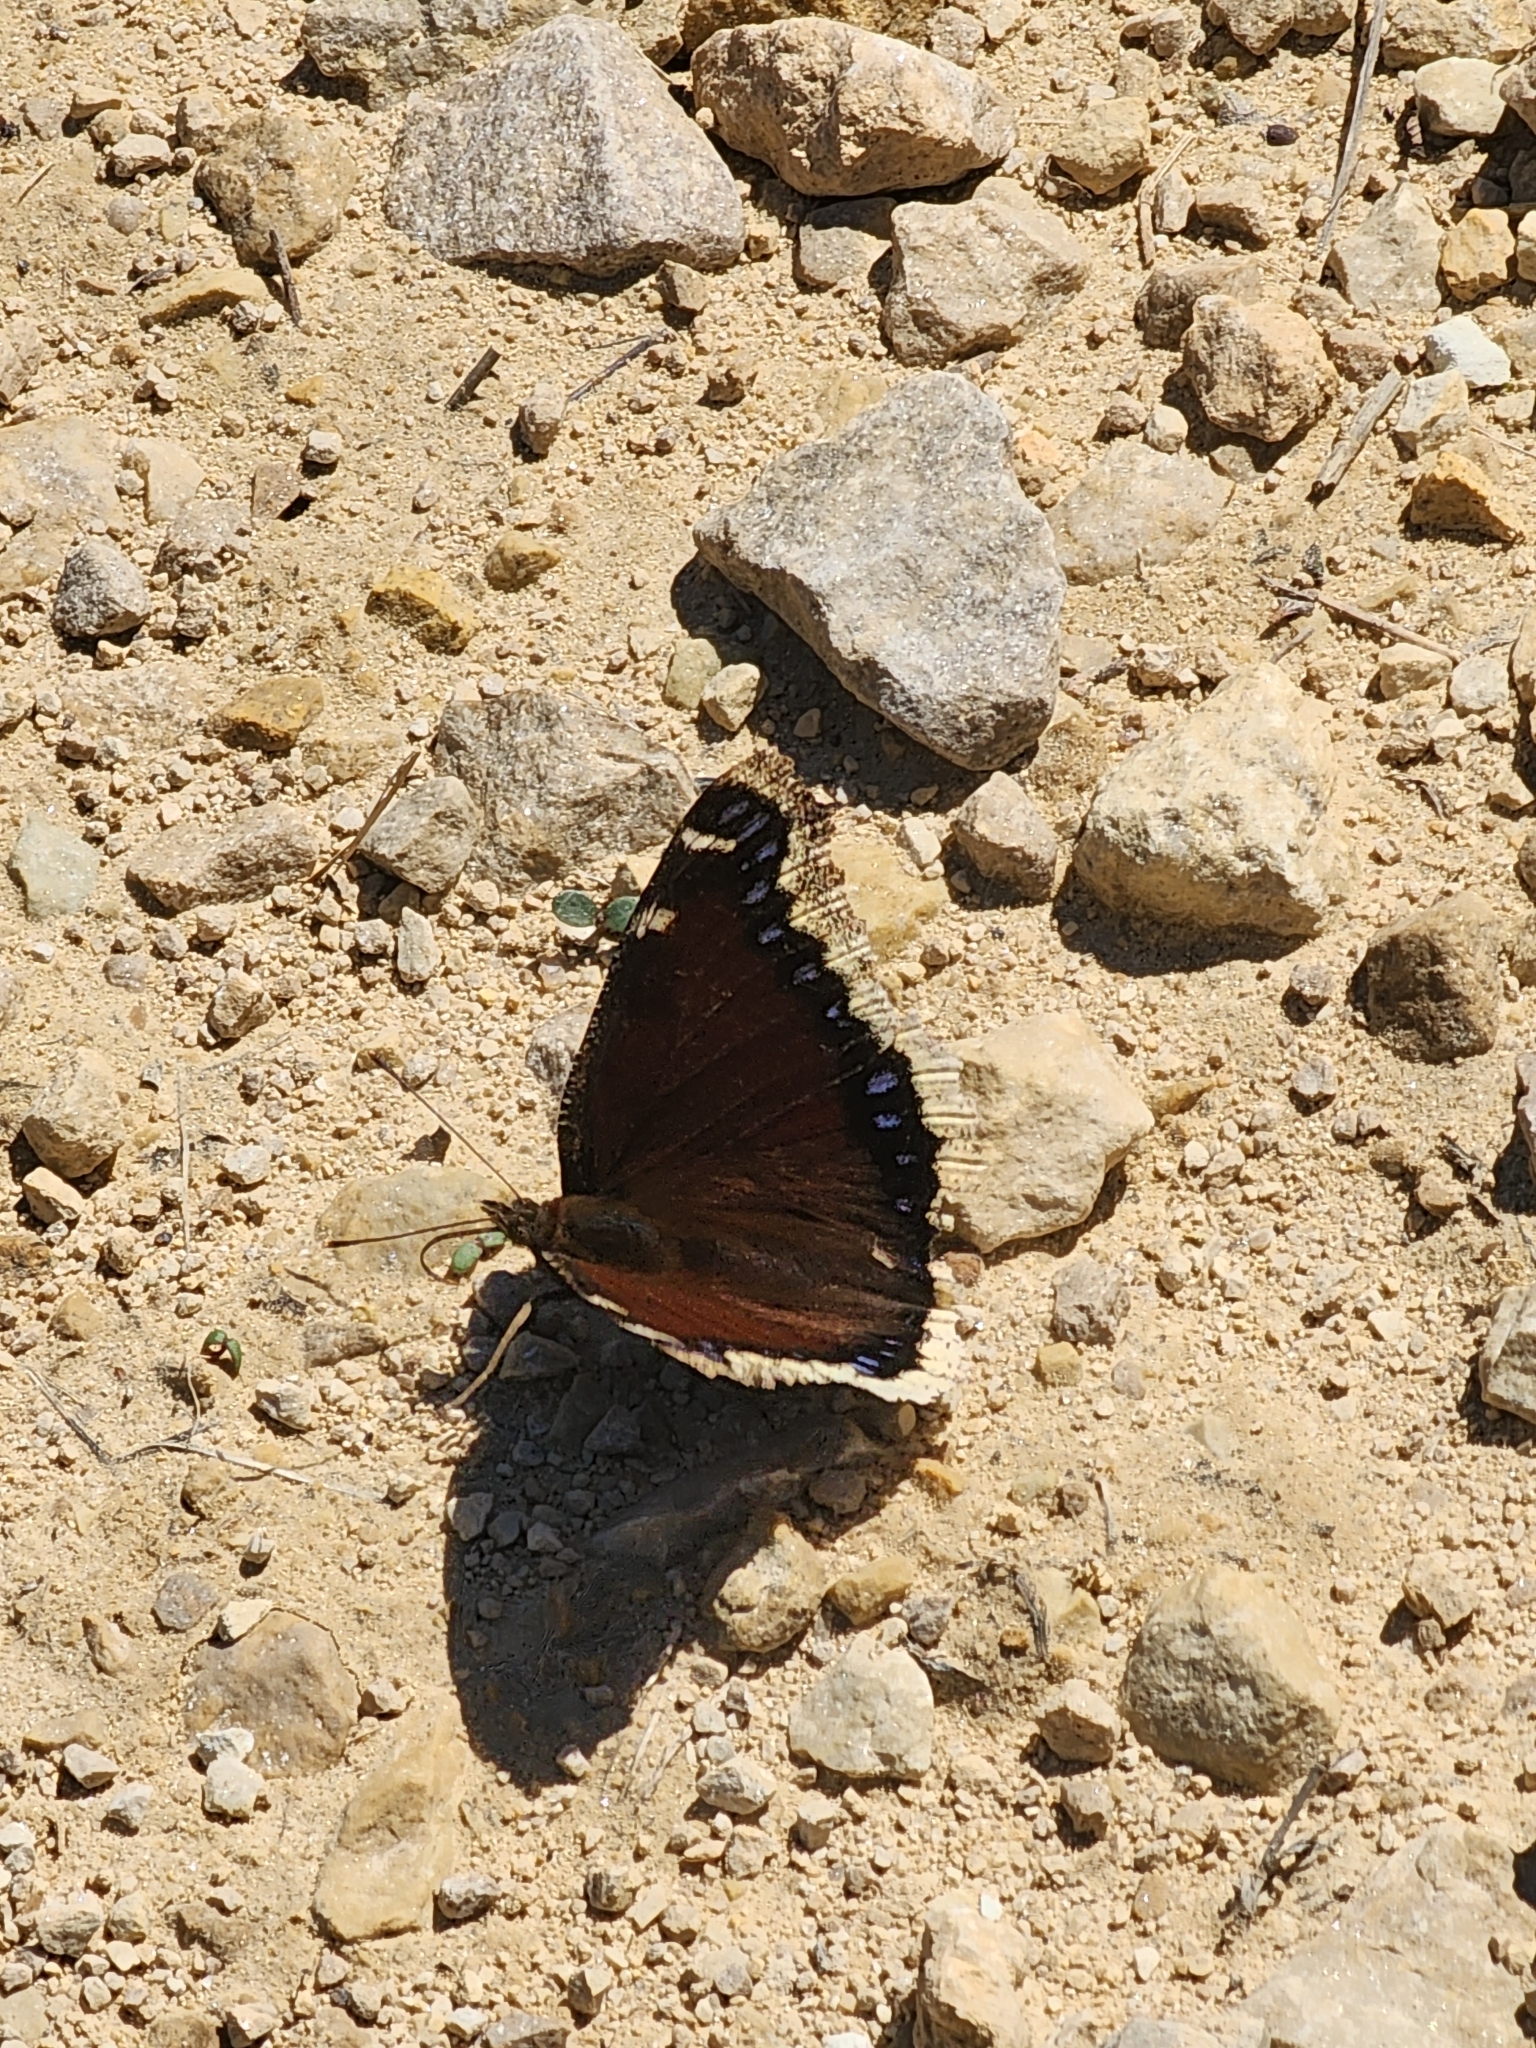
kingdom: Animalia
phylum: Arthropoda
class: Insecta
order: Lepidoptera
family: Nymphalidae
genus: Nymphalis
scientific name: Nymphalis antiopa
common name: Camberwell beauty
